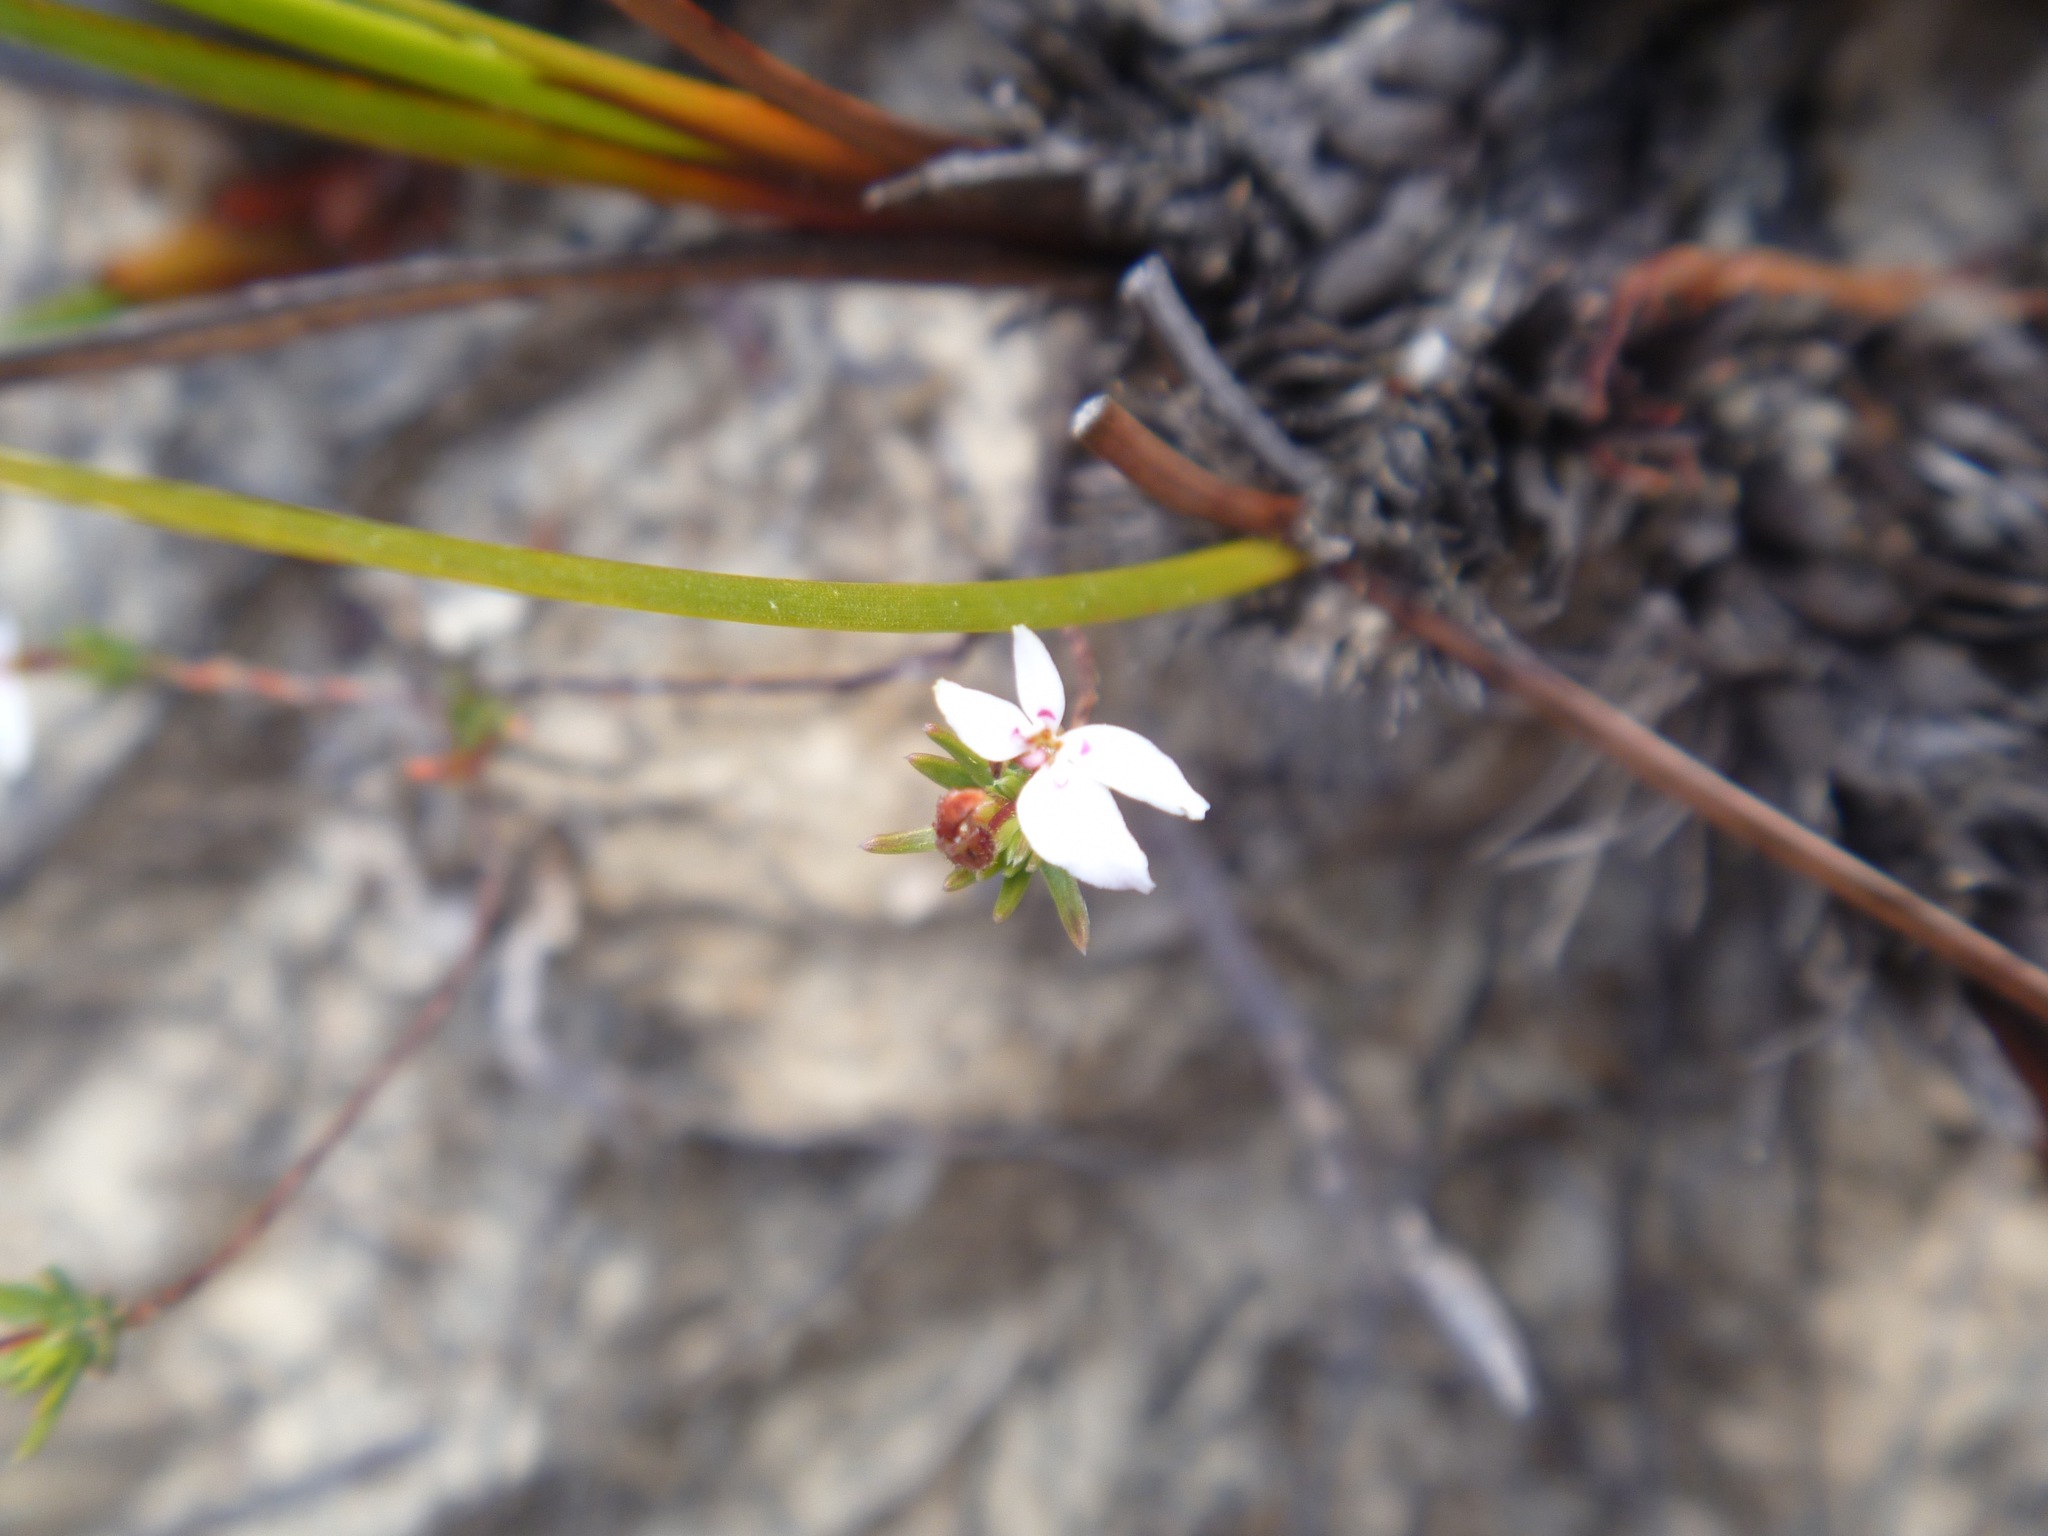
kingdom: Plantae
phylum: Tracheophyta
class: Magnoliopsida
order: Asterales
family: Stylidiaceae
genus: Stylidium
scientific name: Stylidium repens
